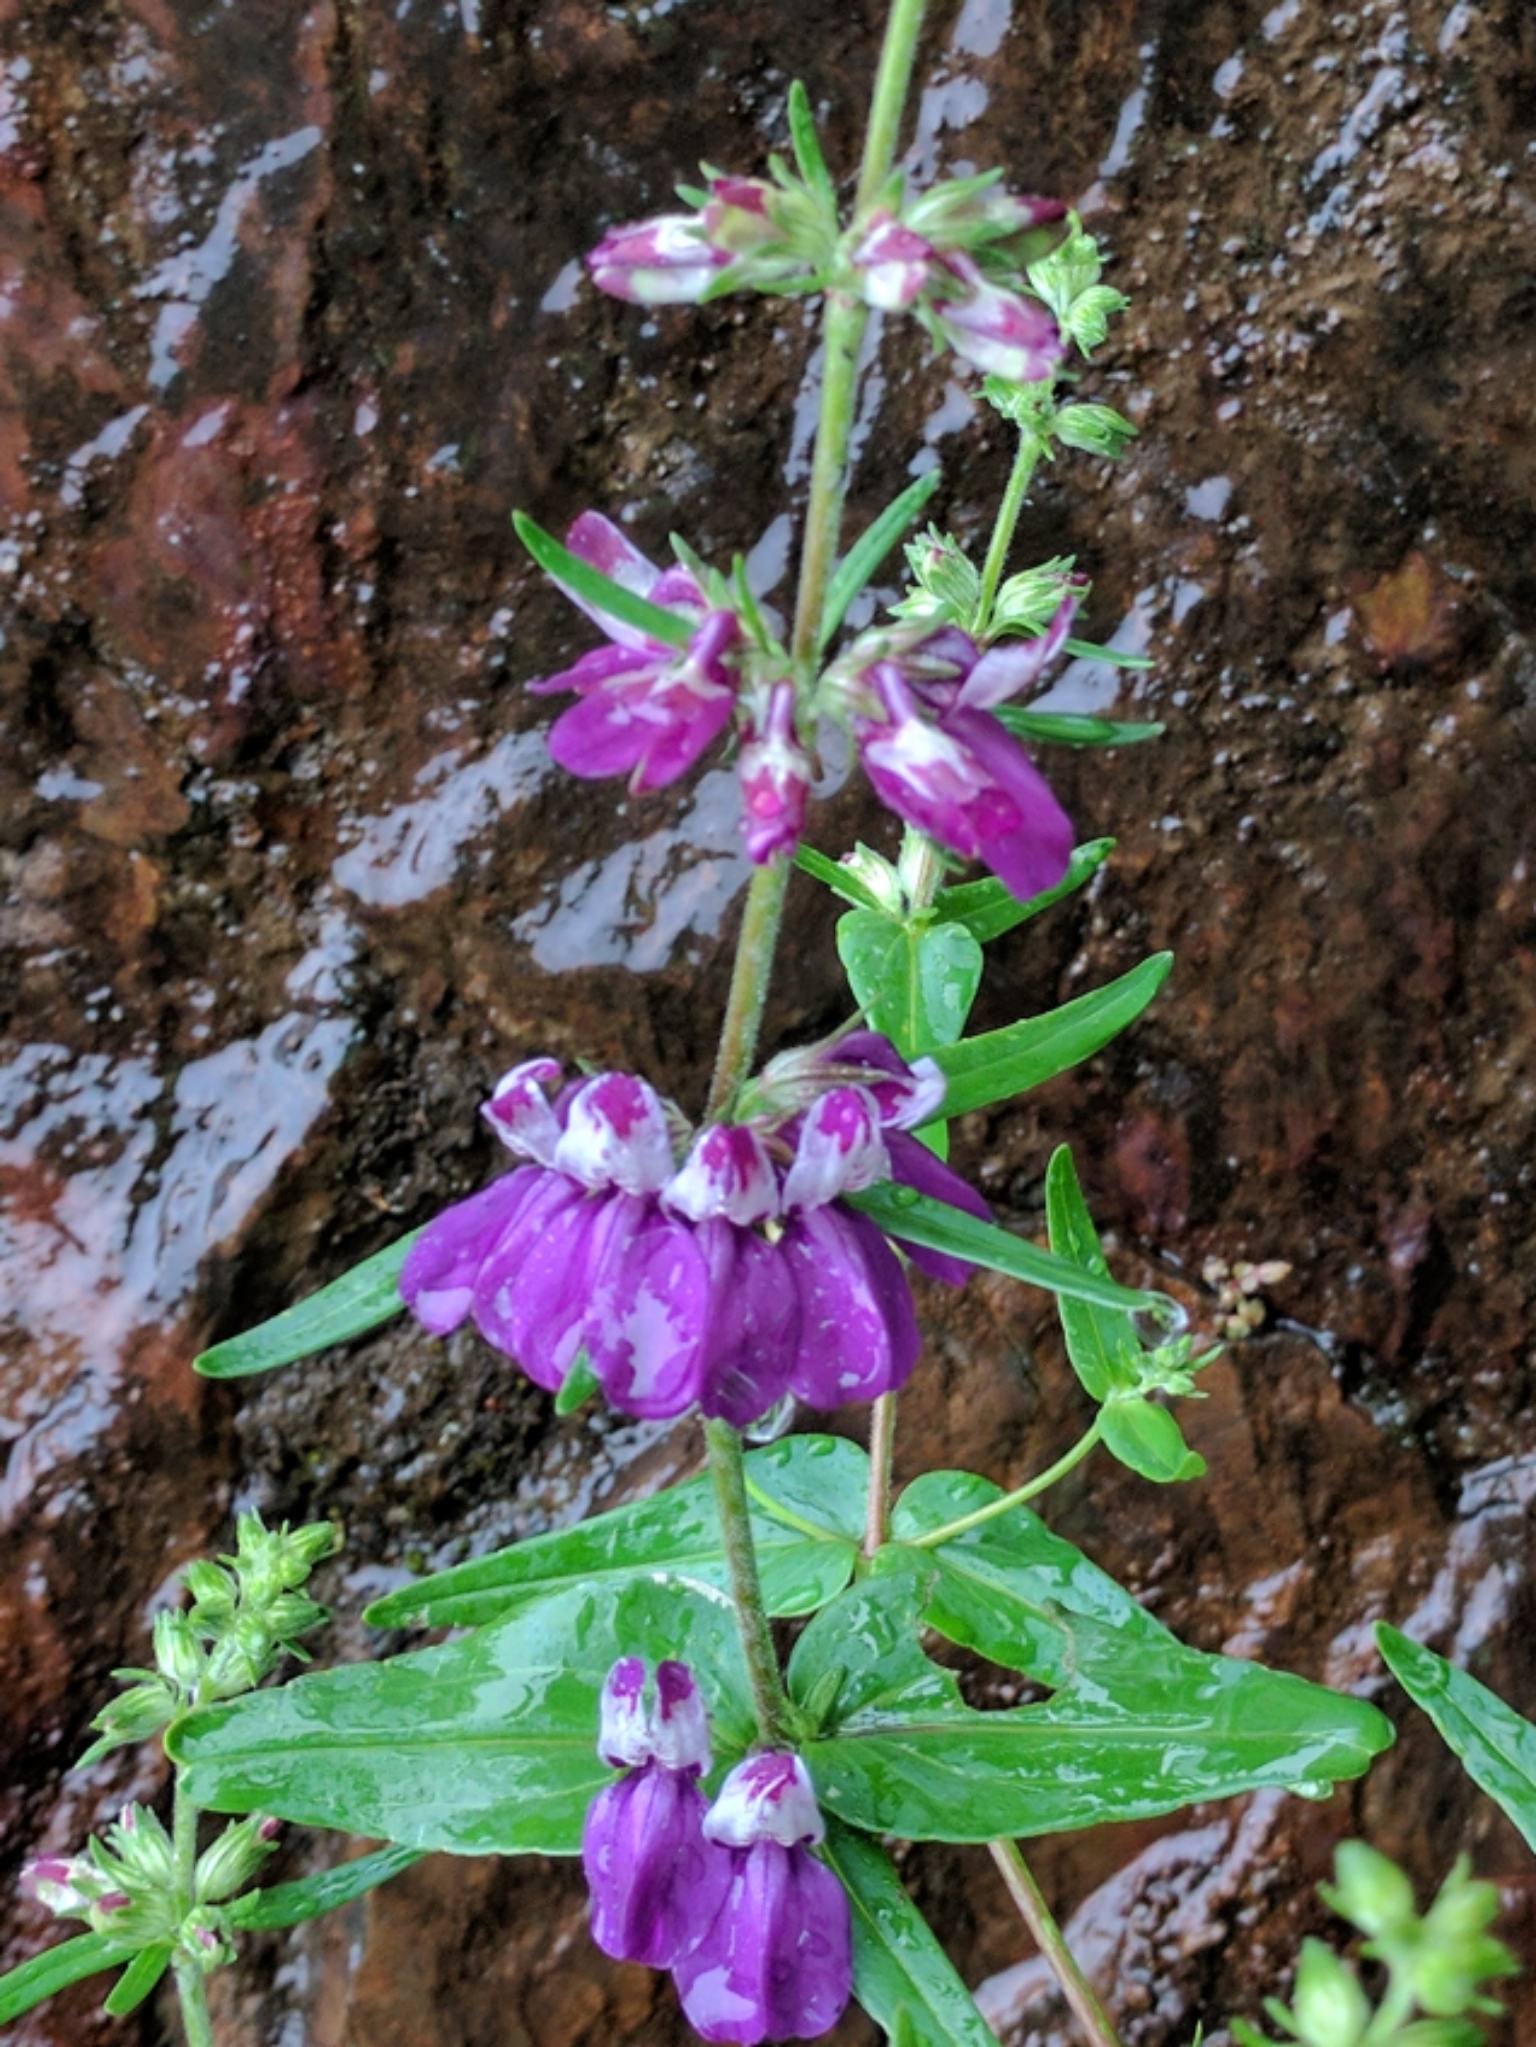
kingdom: Plantae
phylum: Tracheophyta
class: Magnoliopsida
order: Lamiales
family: Plantaginaceae
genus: Collinsia
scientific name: Collinsia heterophylla
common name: Chinese-houses
